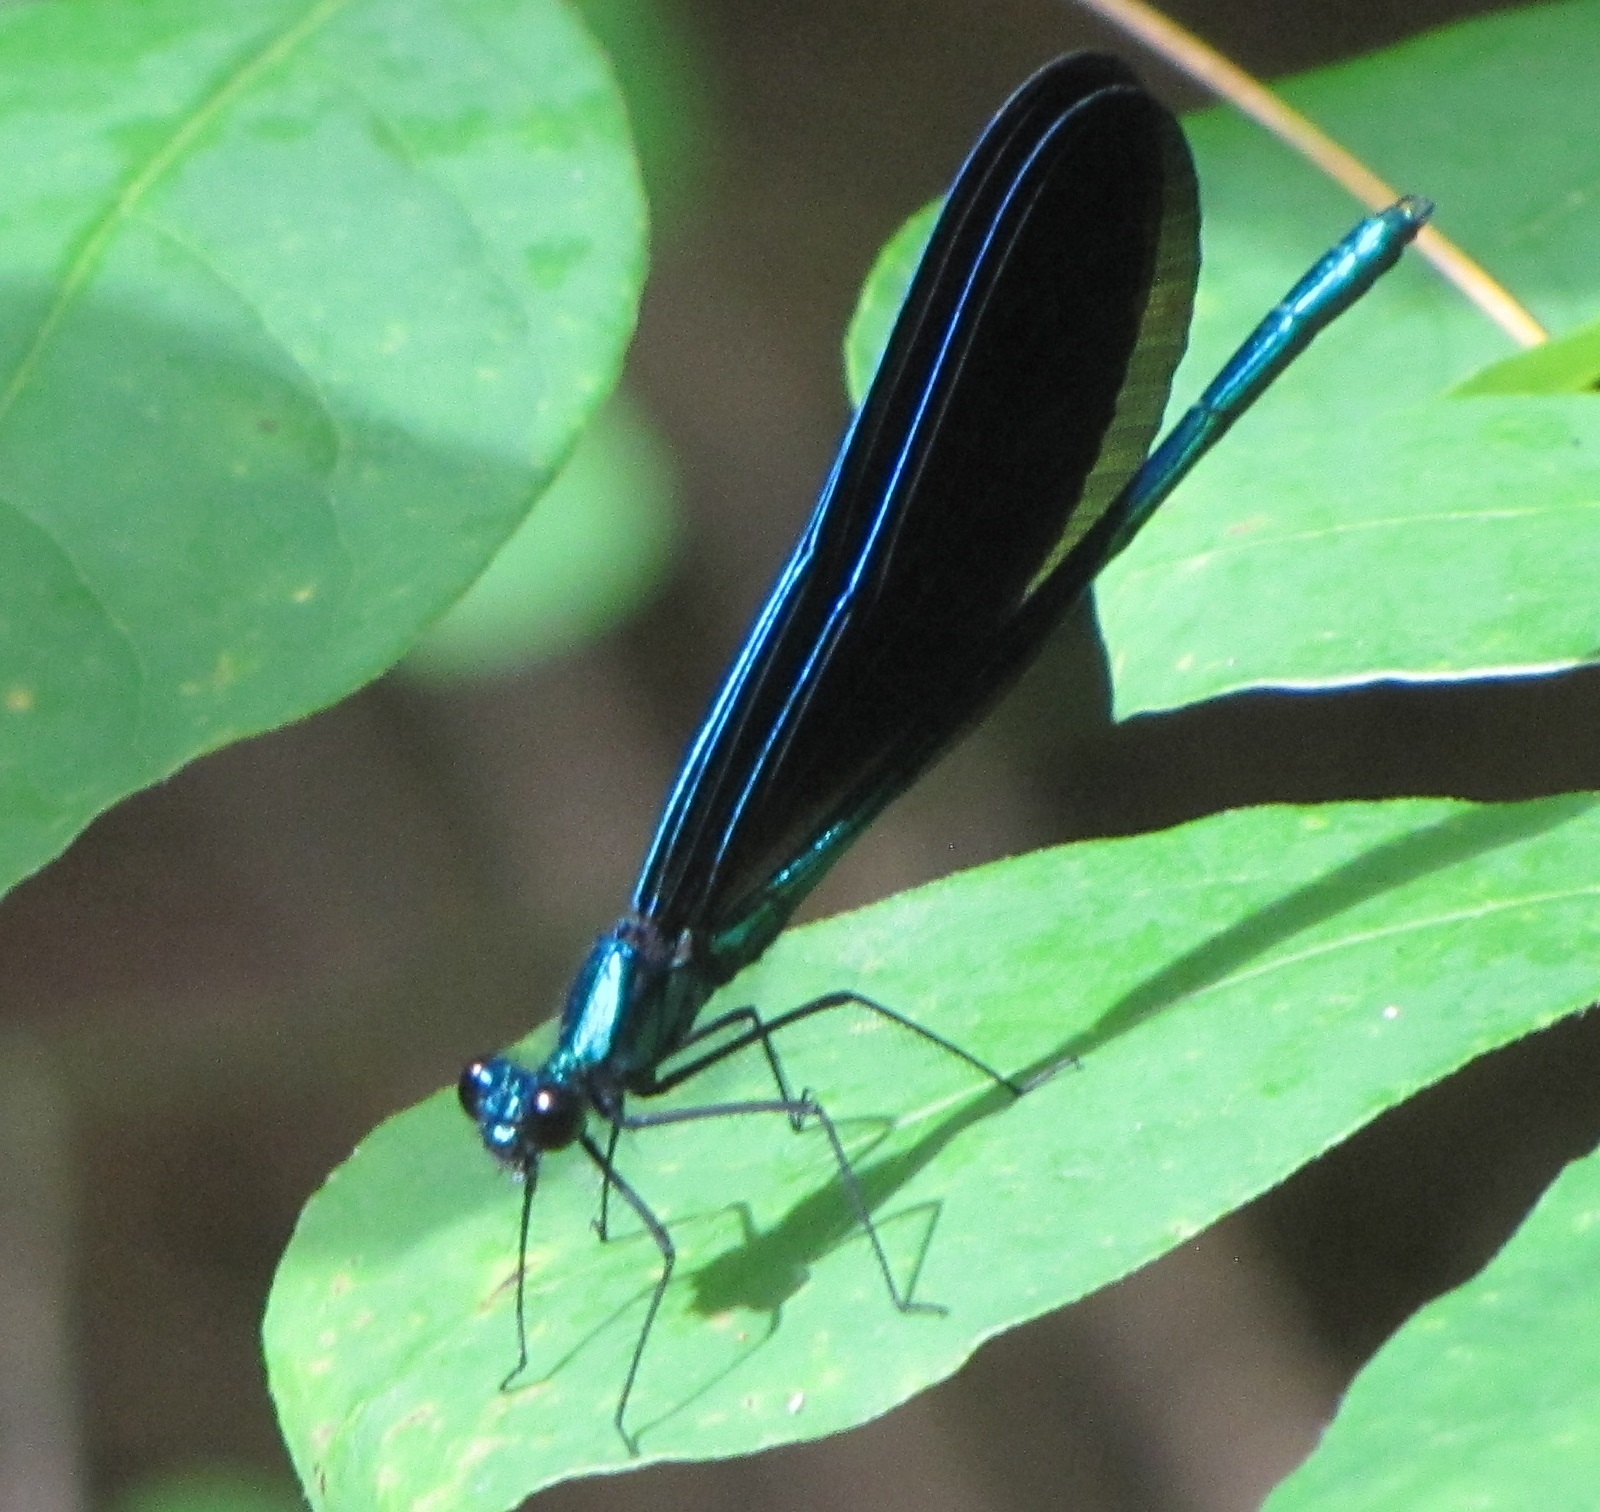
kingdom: Animalia
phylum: Arthropoda
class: Insecta
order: Odonata
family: Calopterygidae
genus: Calopteryx
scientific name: Calopteryx maculata
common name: Ebony jewelwing
